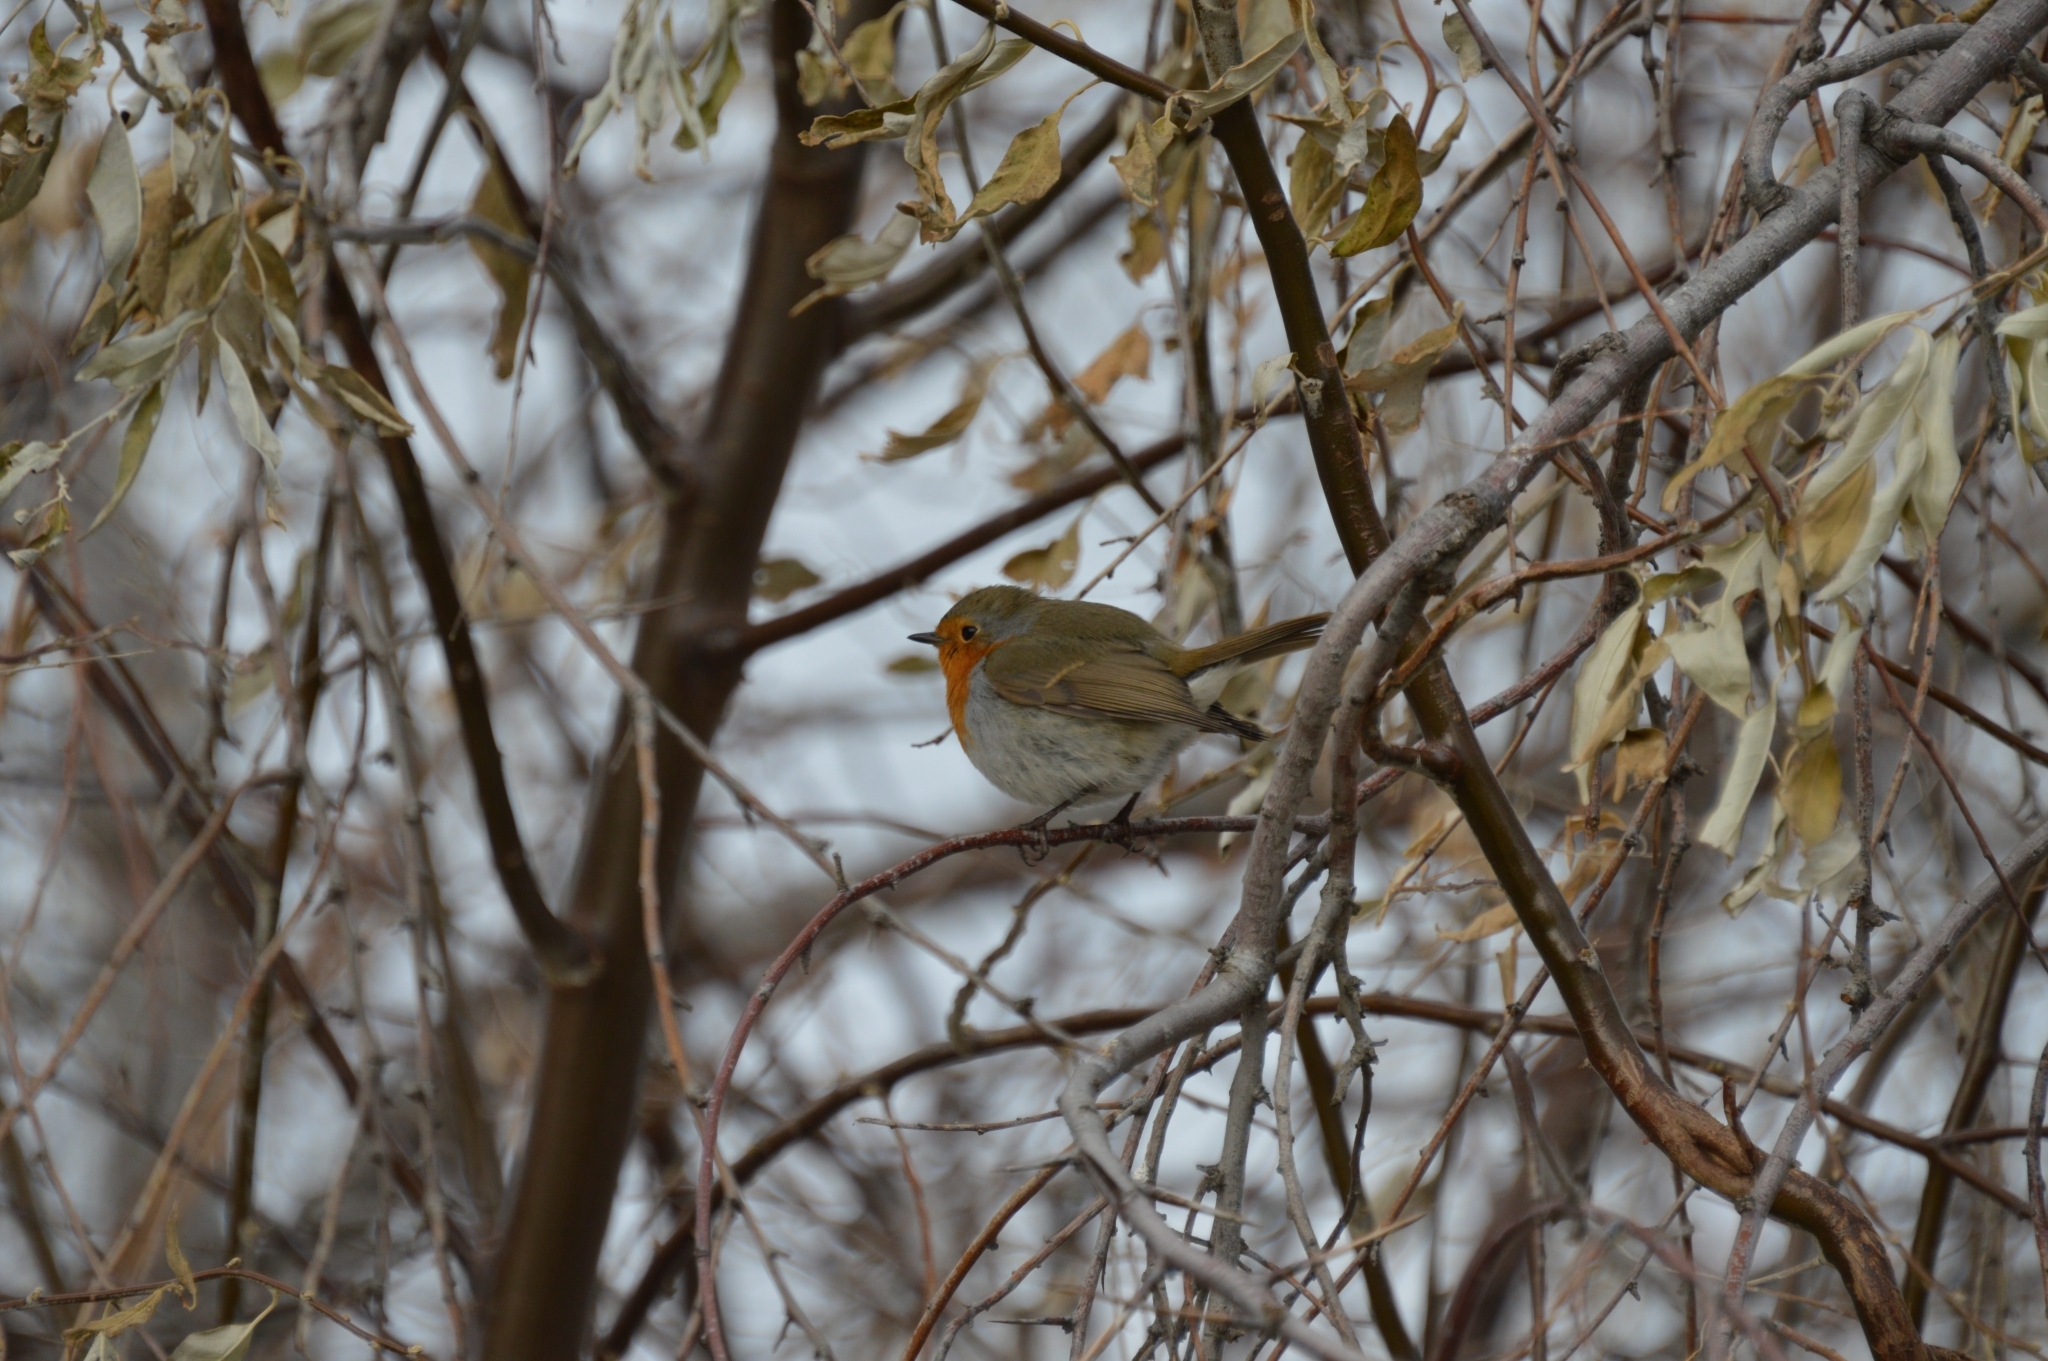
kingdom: Animalia
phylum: Chordata
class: Aves
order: Passeriformes
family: Muscicapidae
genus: Erithacus
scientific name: Erithacus rubecula
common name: European robin
